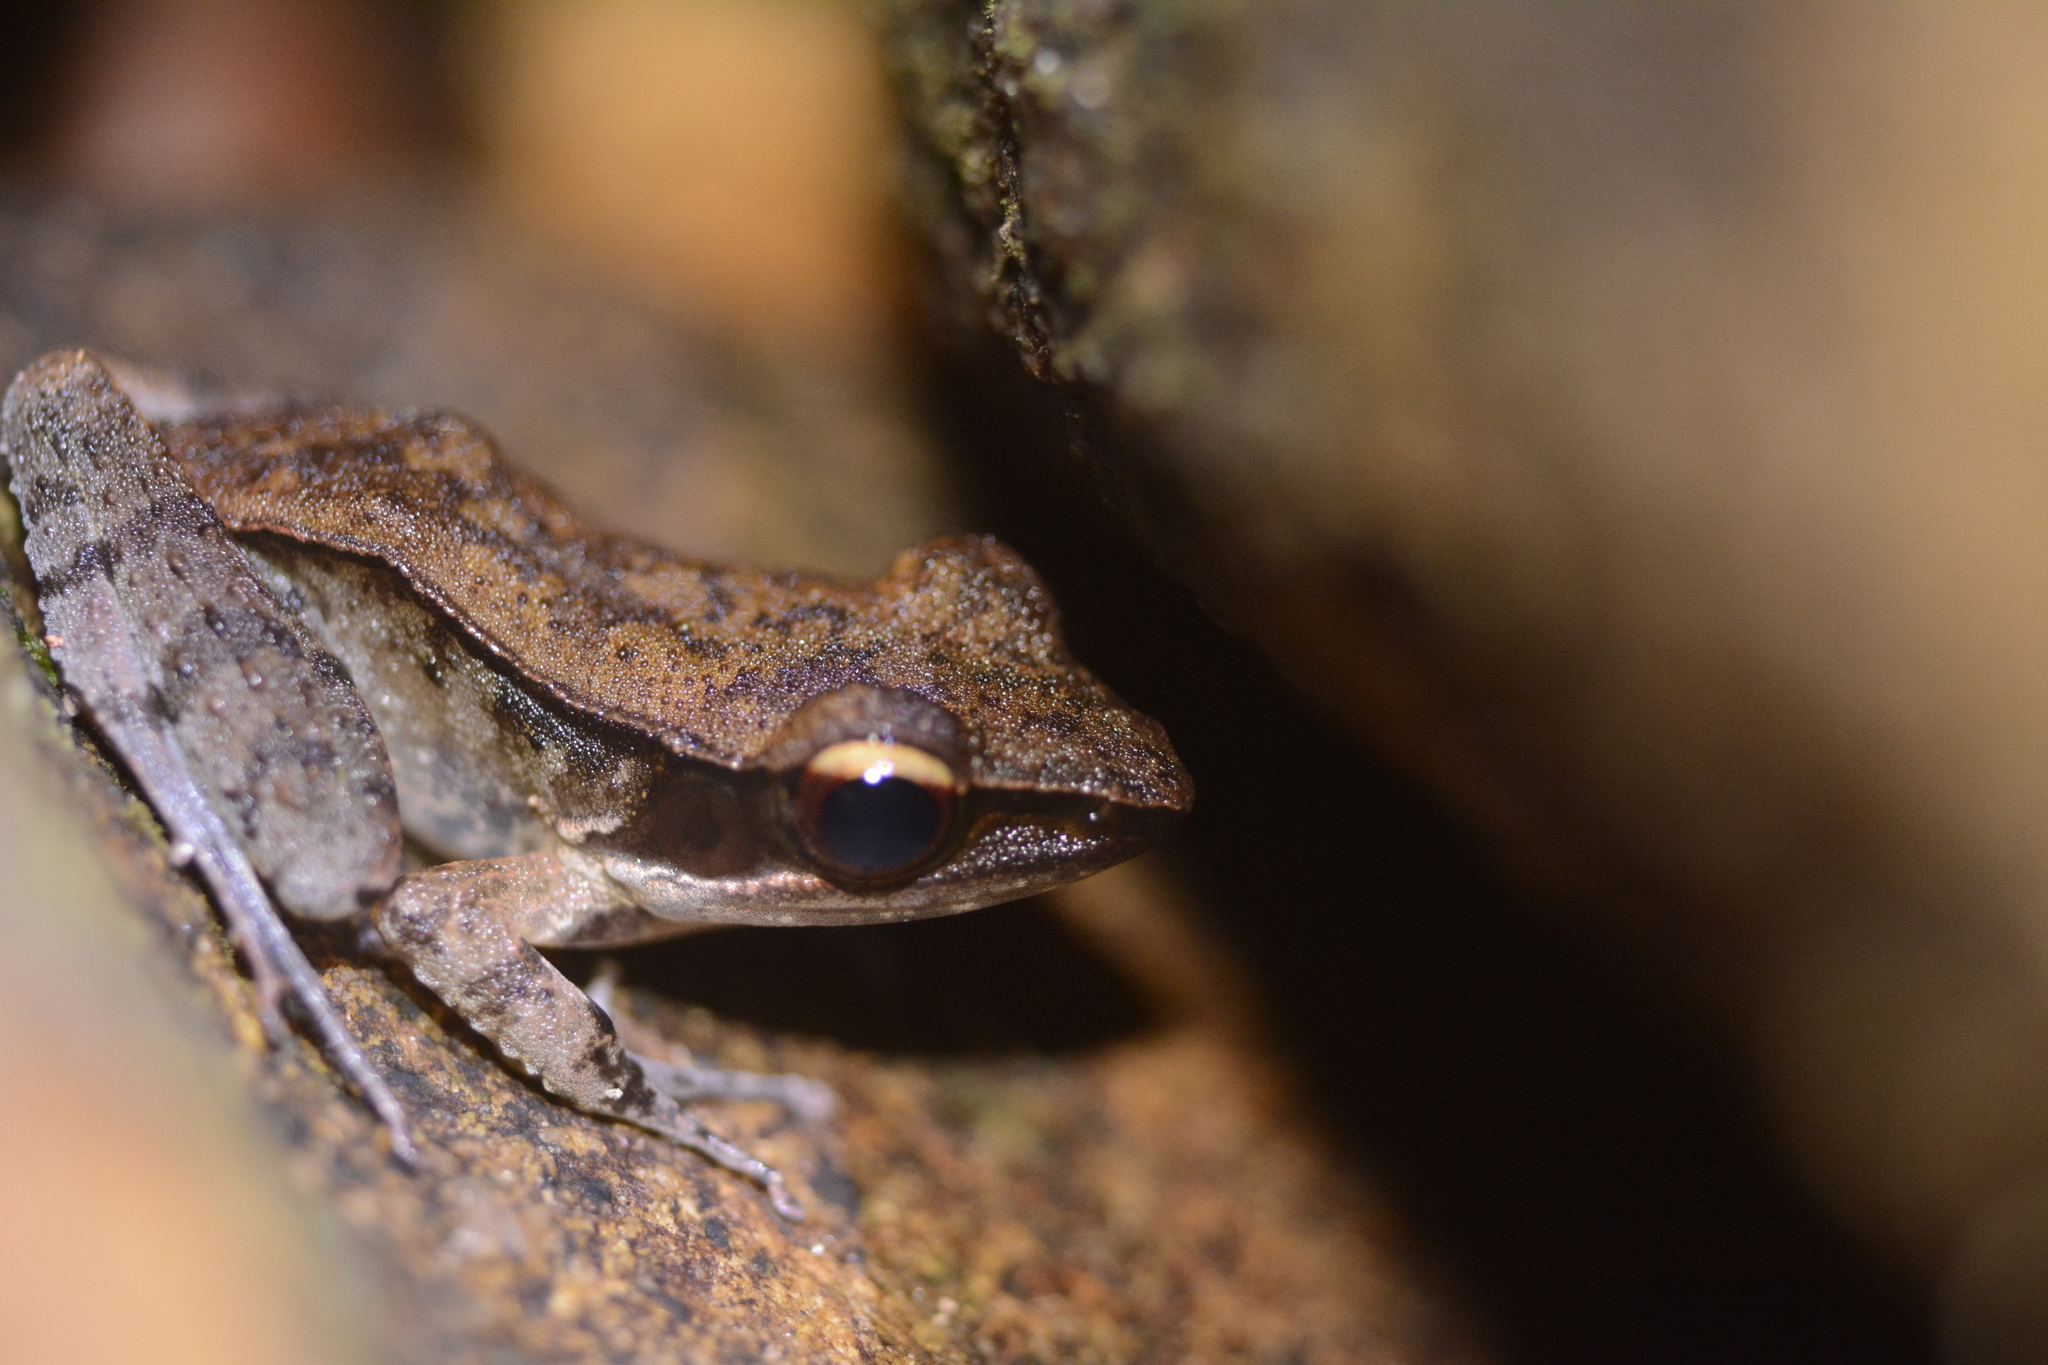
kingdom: Animalia
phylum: Chordata
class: Amphibia
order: Anura
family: Ranidae
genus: Indosylvirana
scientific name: Indosylvirana serendipi
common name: Sri lankan golden-backed frog
